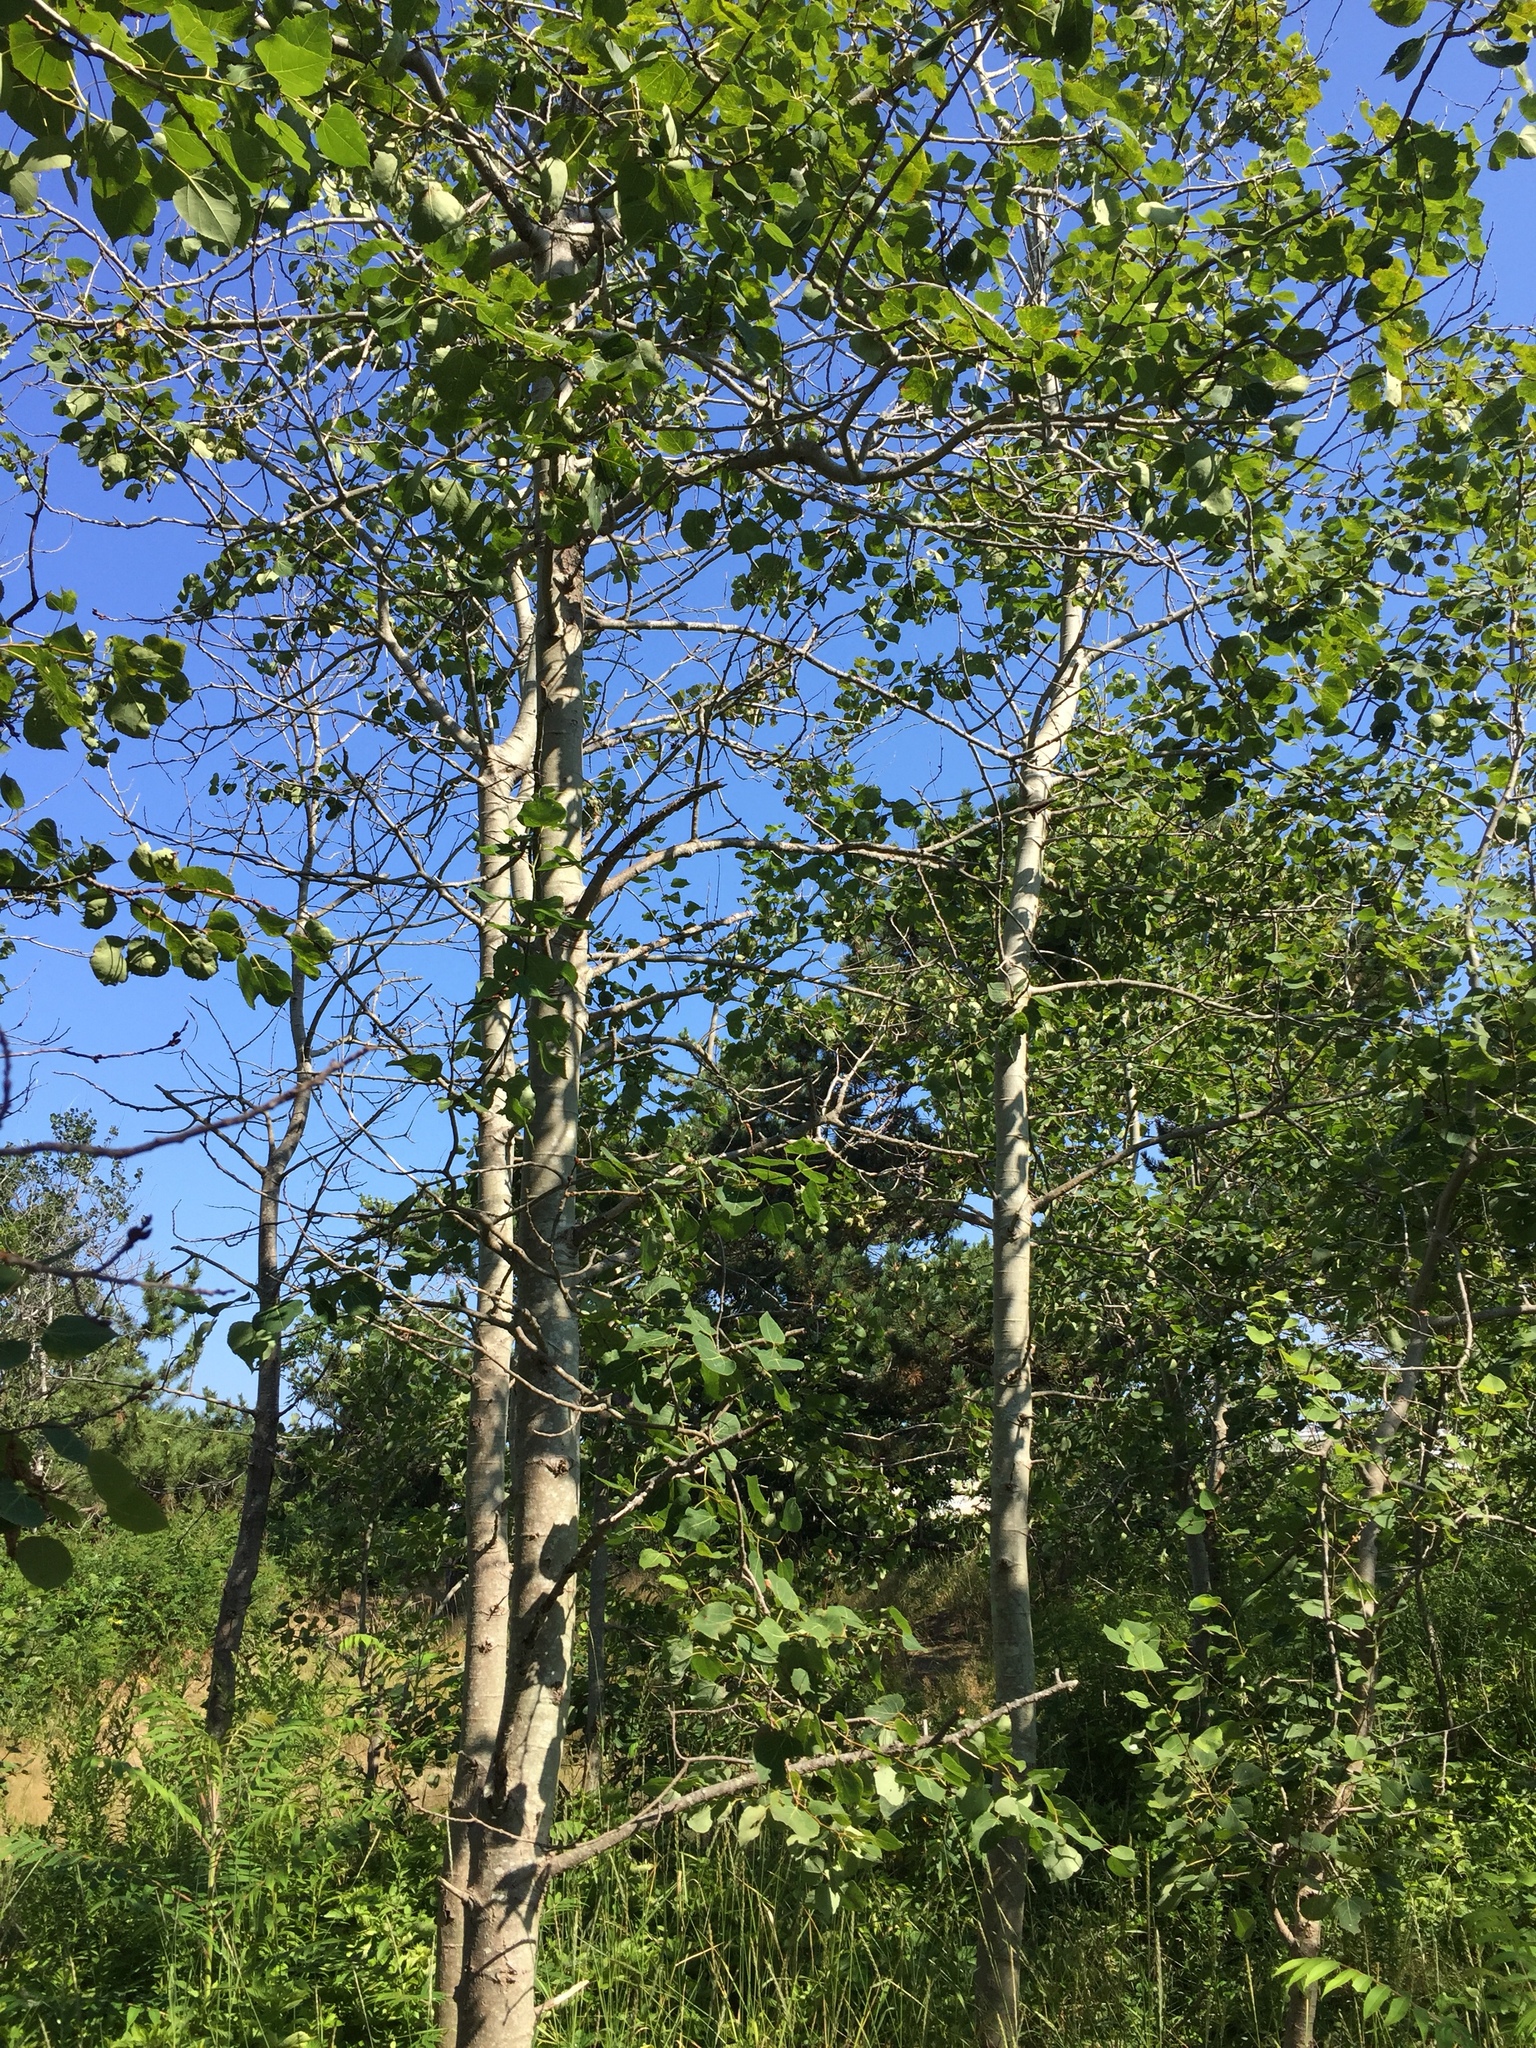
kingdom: Plantae
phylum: Tracheophyta
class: Magnoliopsida
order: Malpighiales
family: Salicaceae
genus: Populus
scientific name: Populus tremuloides
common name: Quaking aspen
